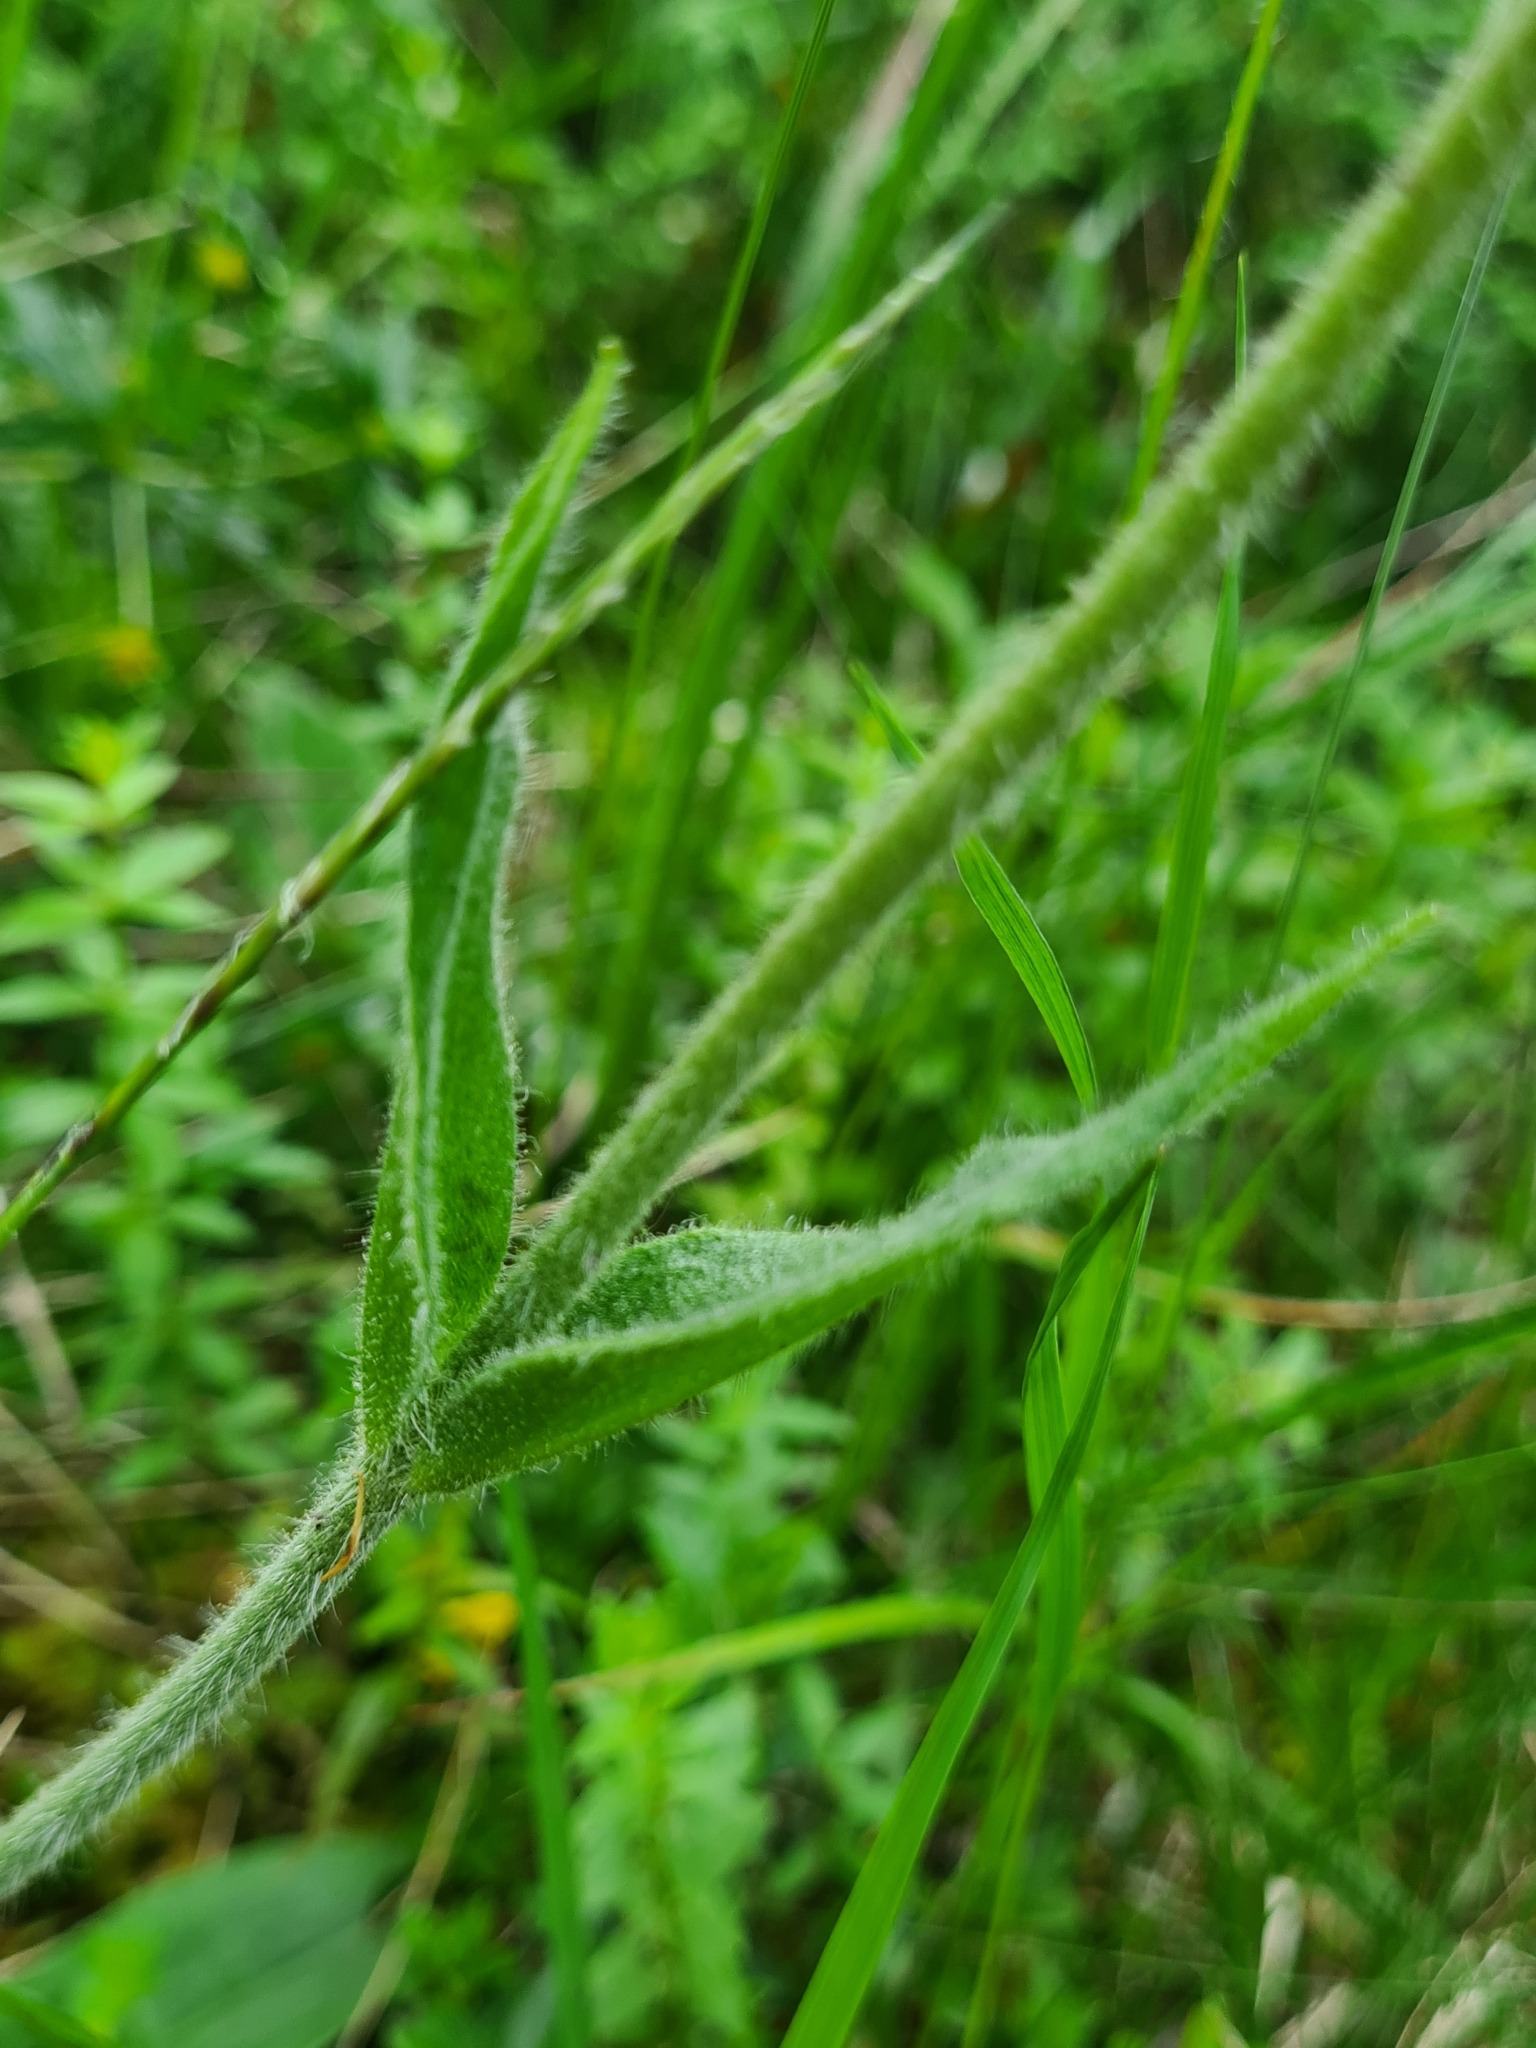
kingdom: Plantae
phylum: Tracheophyta
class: Magnoliopsida
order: Asterales
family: Asteraceae
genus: Arnica
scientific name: Arnica montana
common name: Leopard's bane
